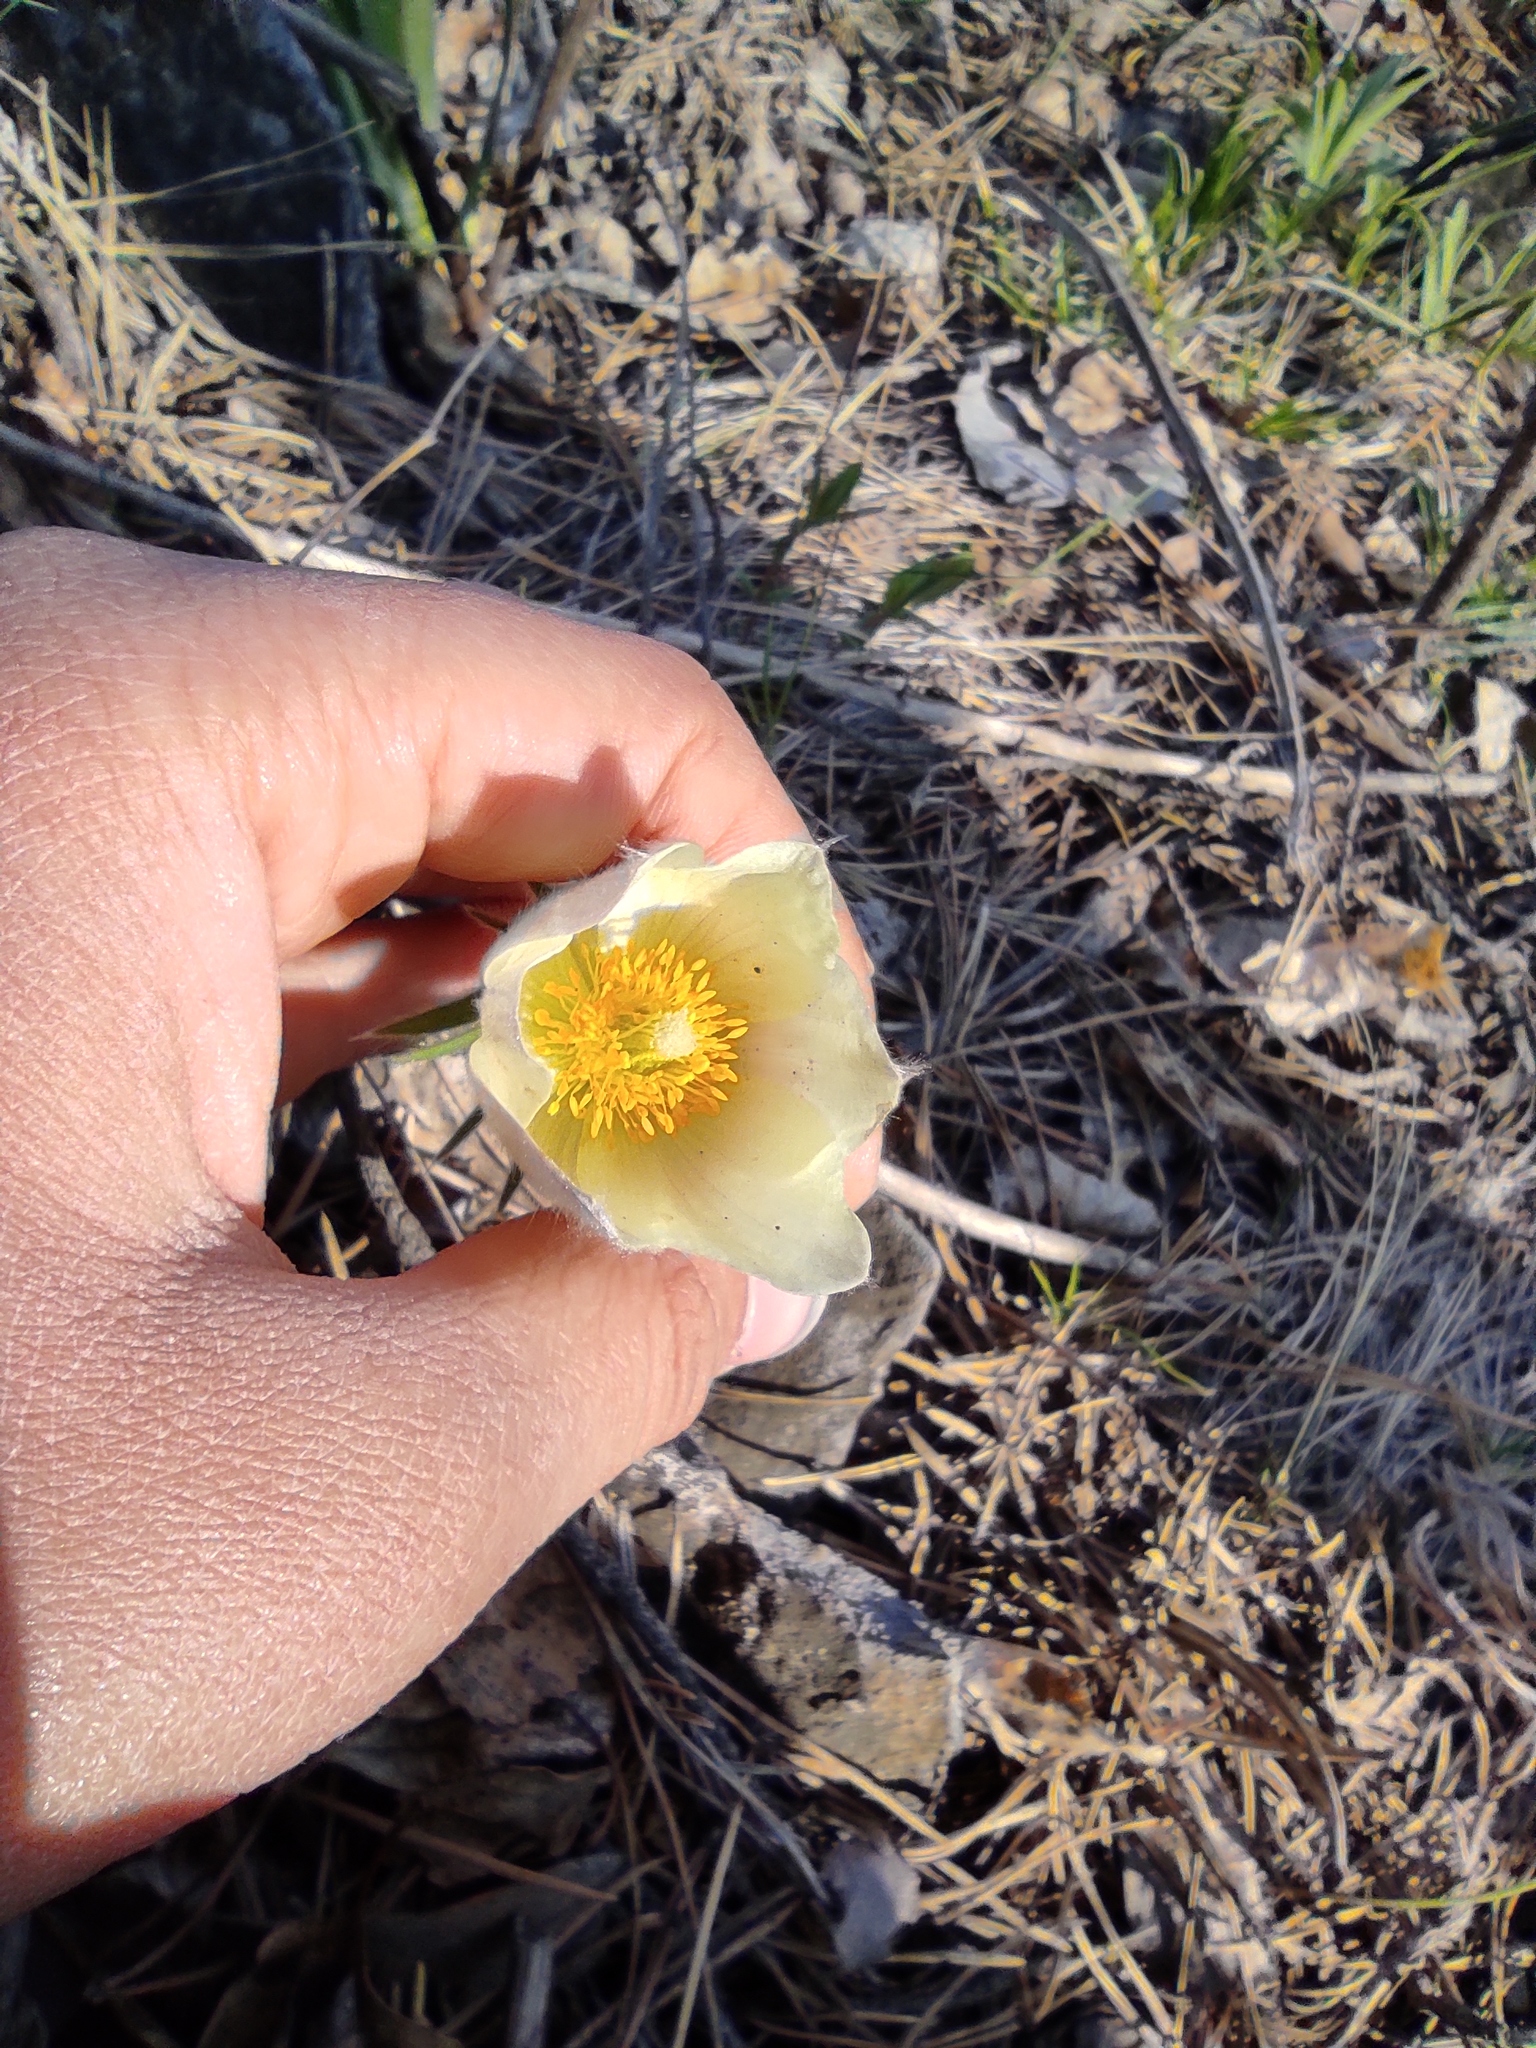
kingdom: Plantae
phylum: Tracheophyta
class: Magnoliopsida
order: Ranunculales
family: Ranunculaceae
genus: Pulsatilla
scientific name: Pulsatilla patens
